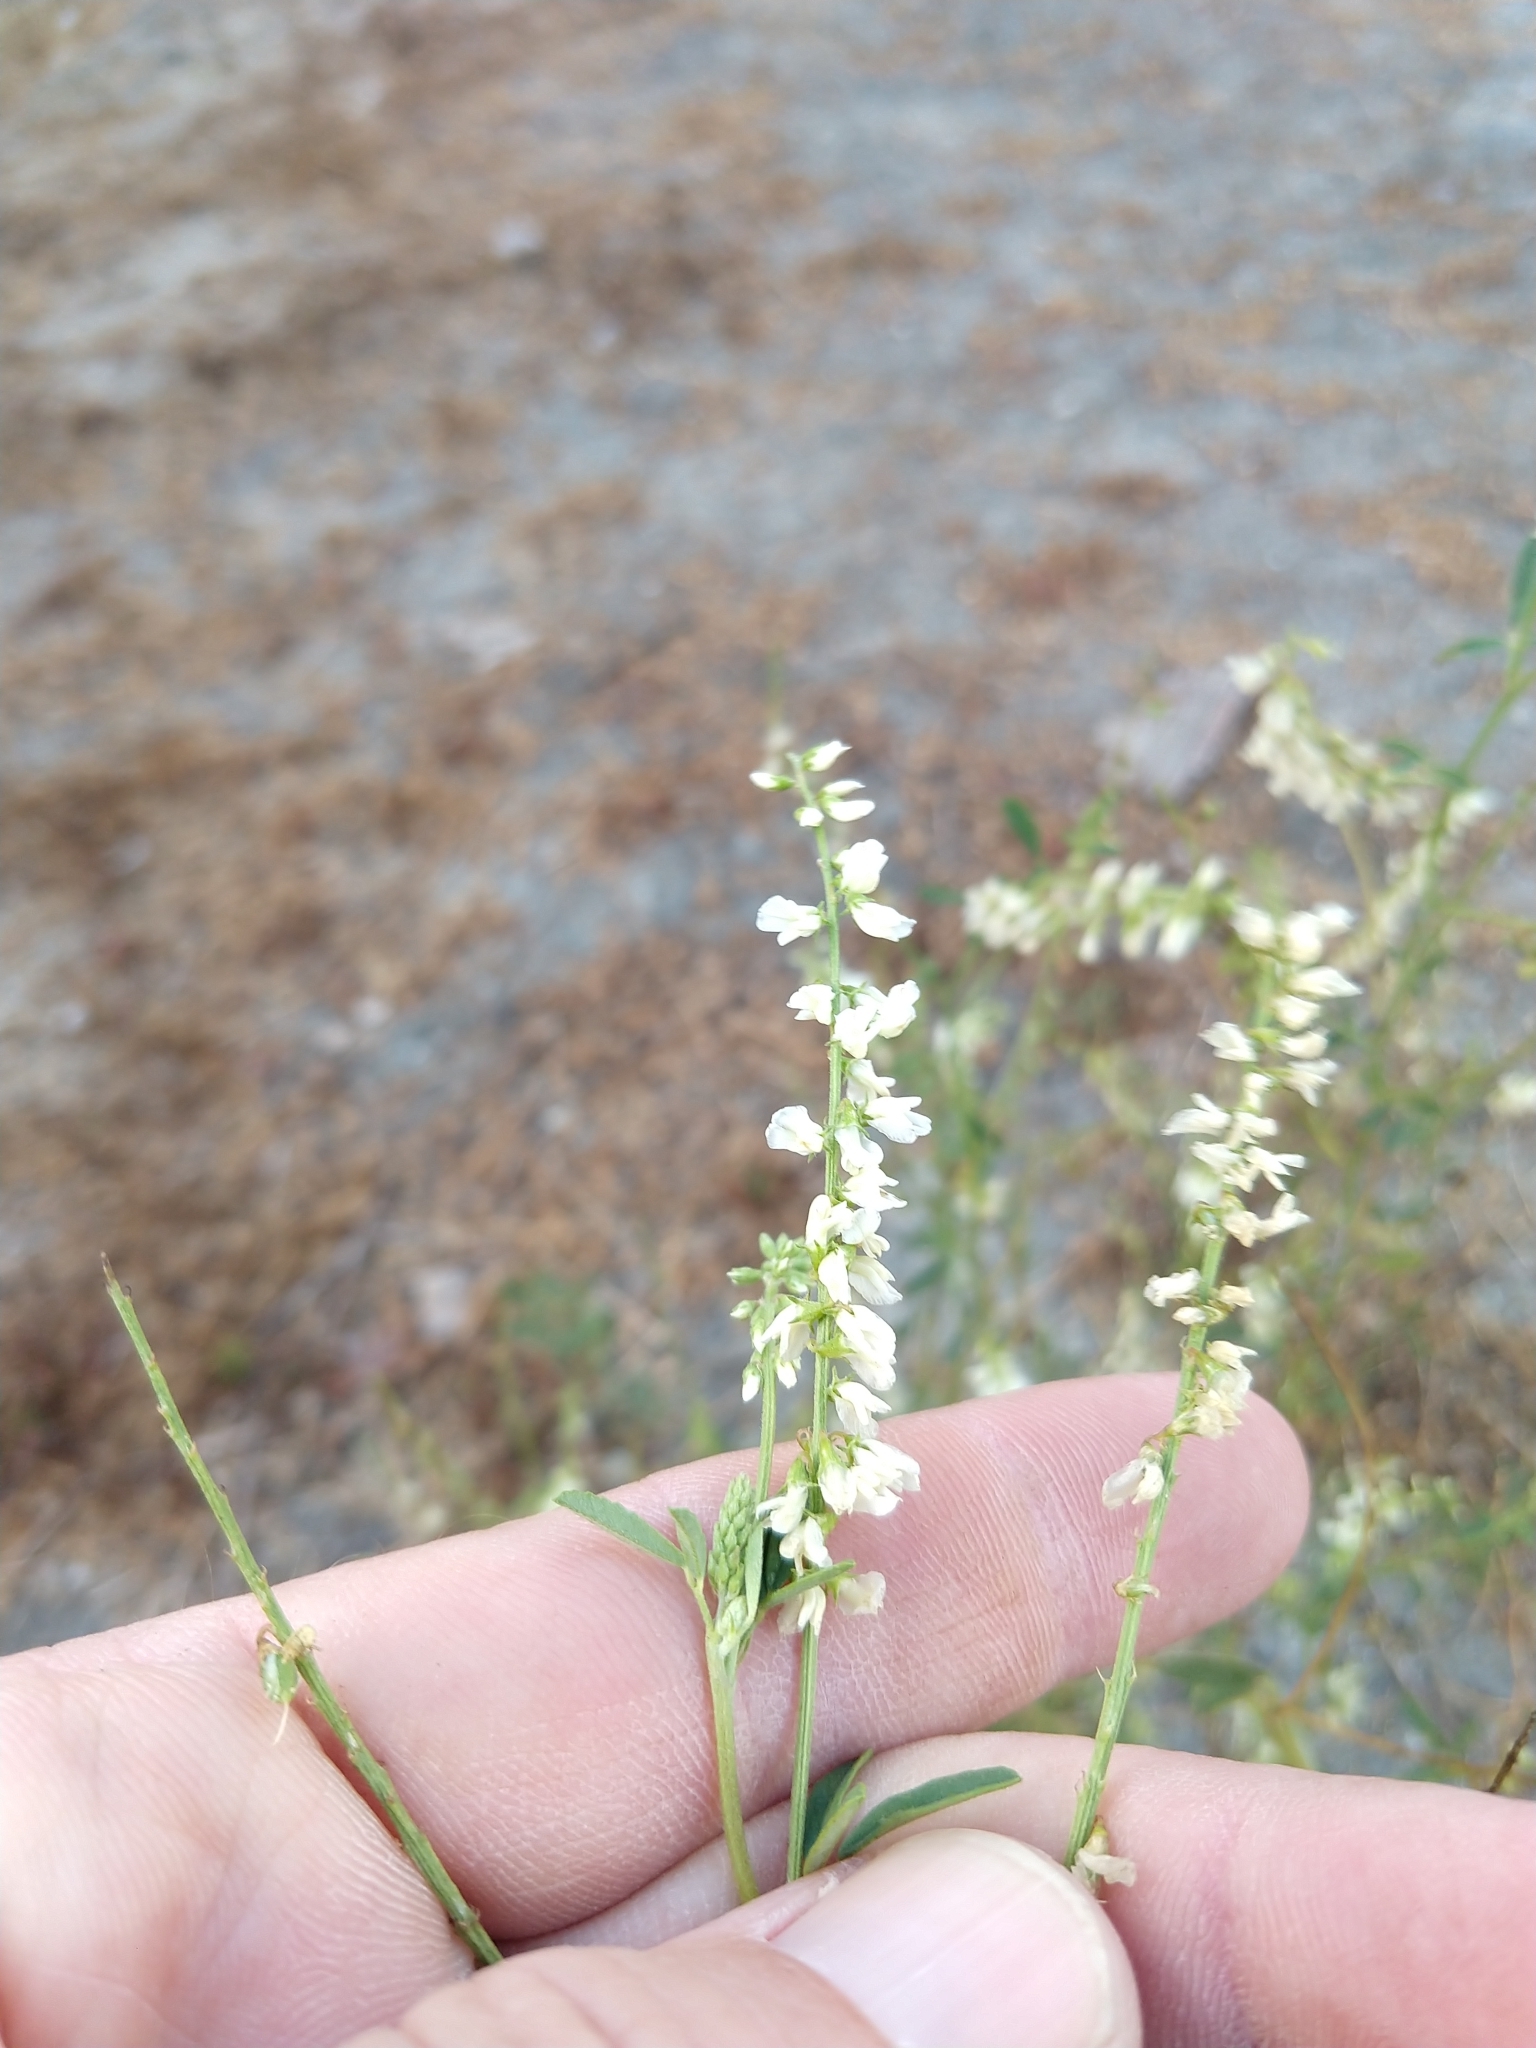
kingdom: Plantae
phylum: Tracheophyta
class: Magnoliopsida
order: Fabales
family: Fabaceae
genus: Melilotus
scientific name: Melilotus albus
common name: White melilot
